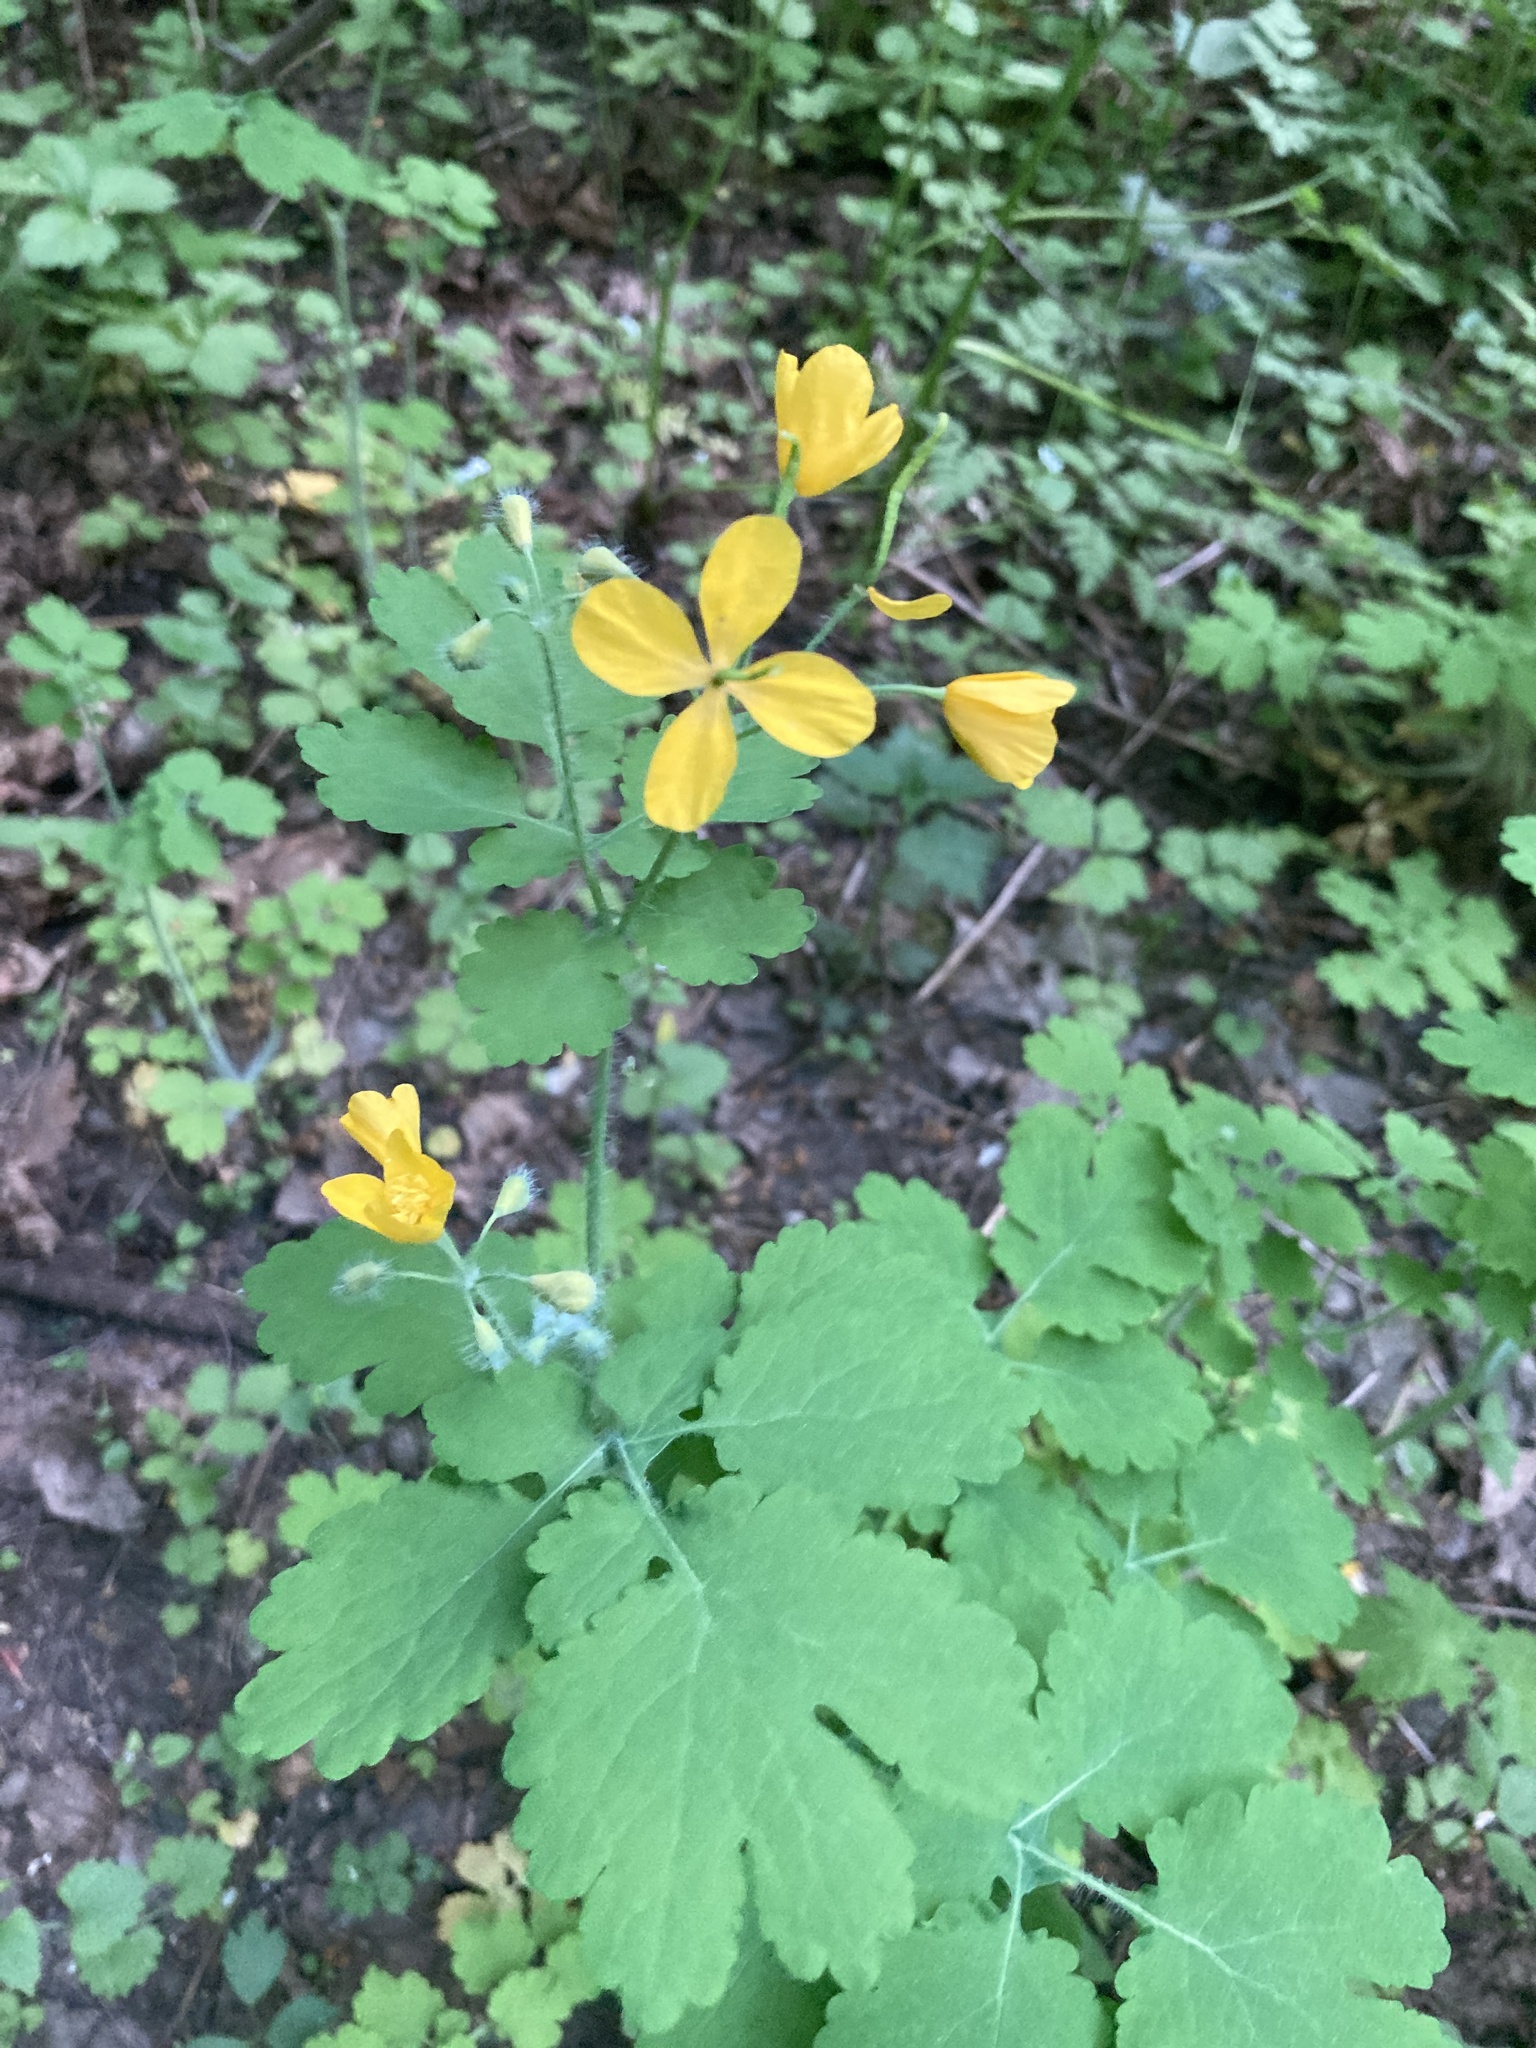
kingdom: Plantae
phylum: Tracheophyta
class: Magnoliopsida
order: Ranunculales
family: Papaveraceae
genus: Chelidonium
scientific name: Chelidonium majus
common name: Greater celandine
